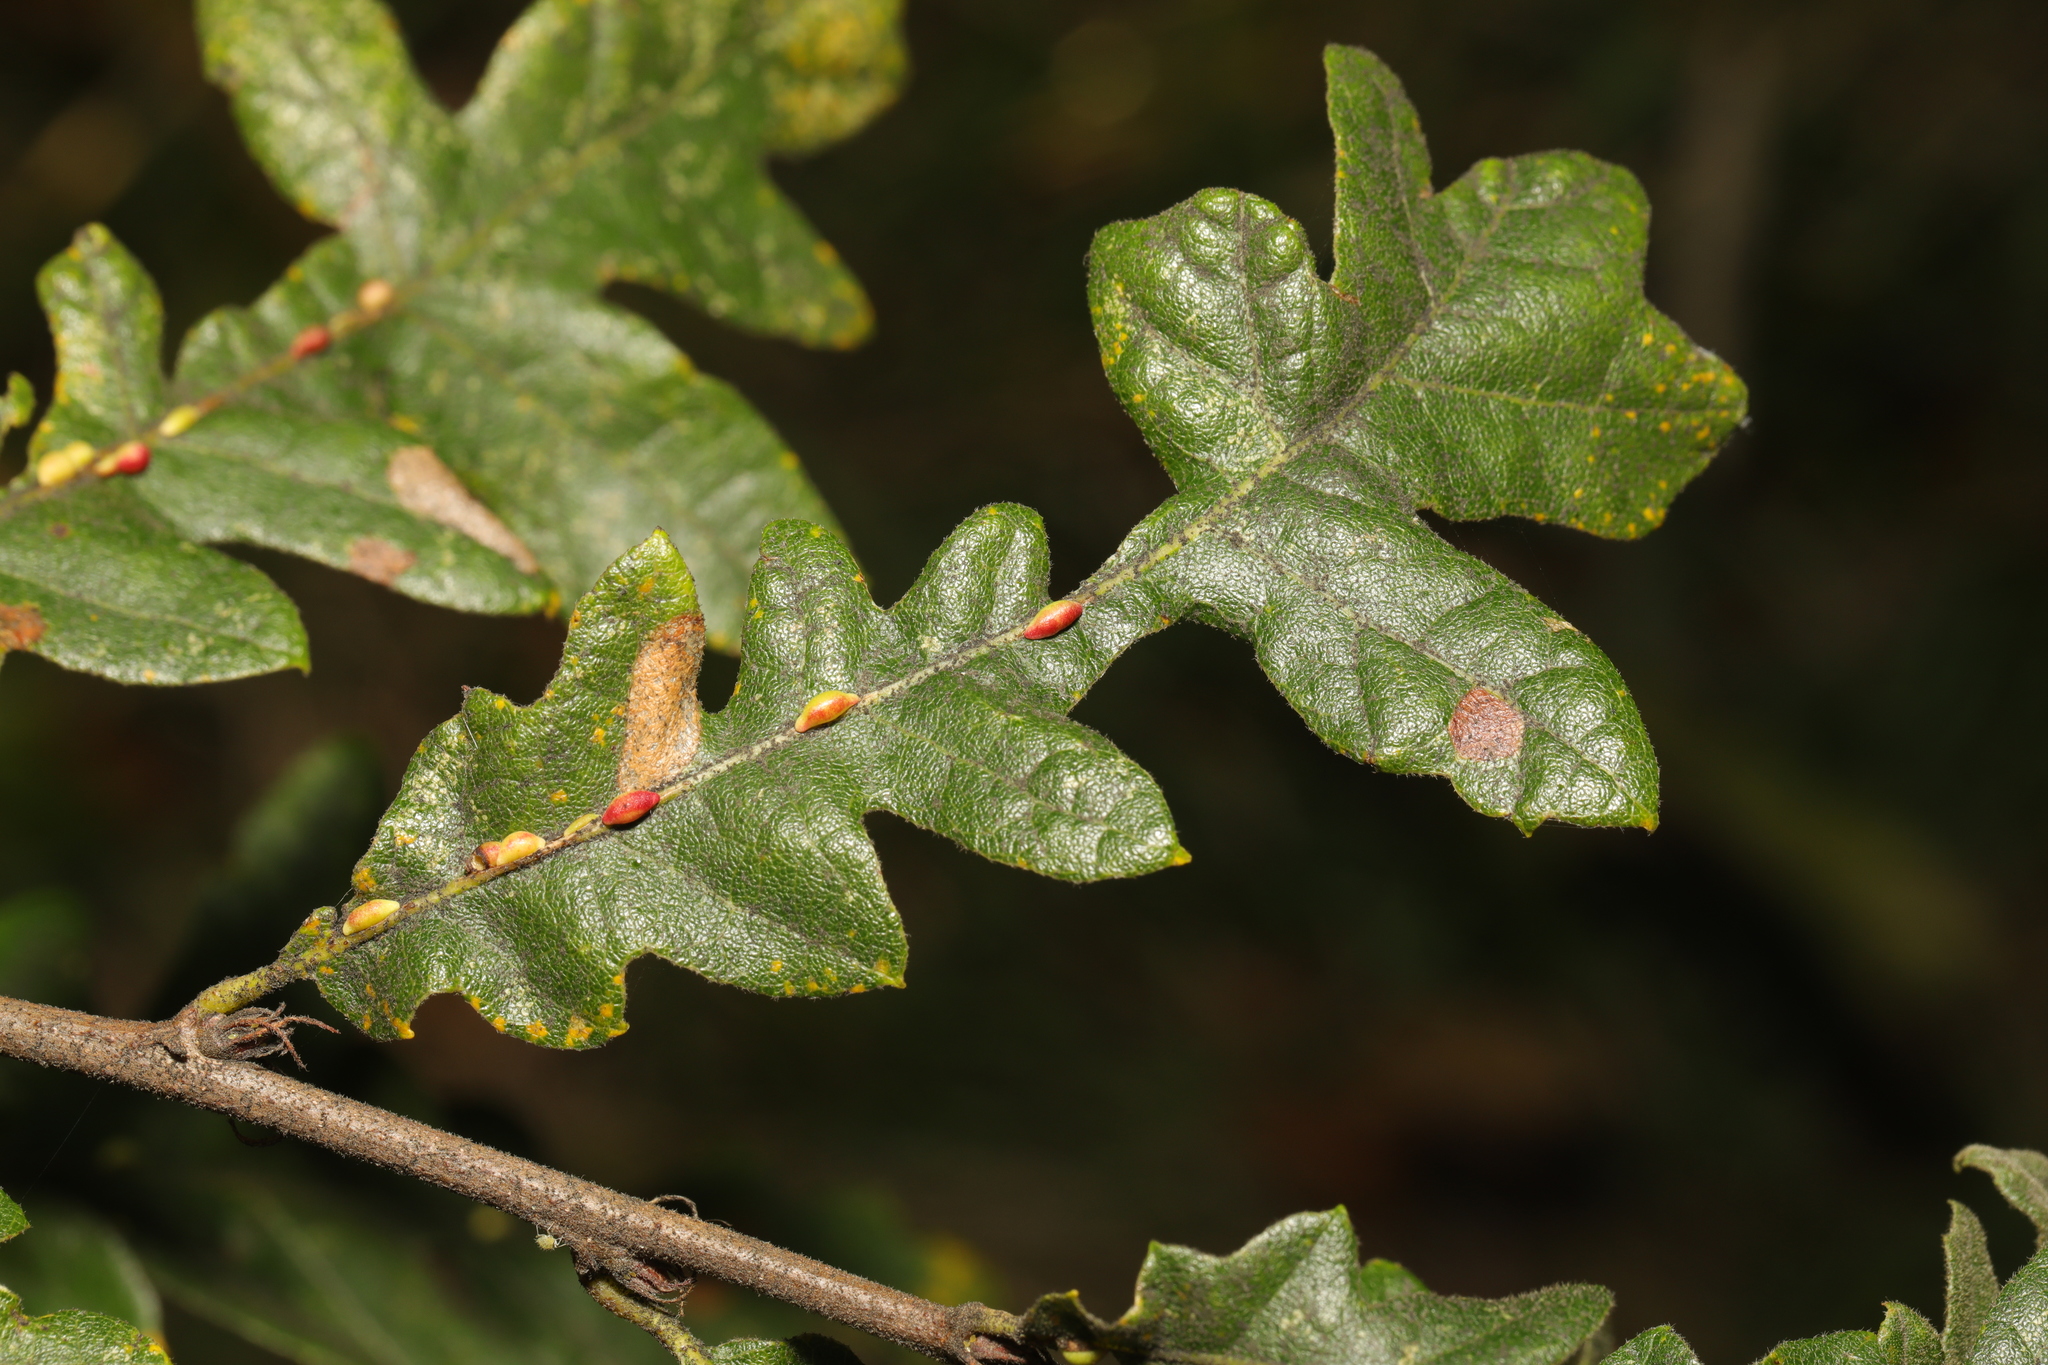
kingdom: Plantae
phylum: Tracheophyta
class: Magnoliopsida
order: Fagales
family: Fagaceae
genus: Quercus
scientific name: Quercus cerris
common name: Turkey oak
